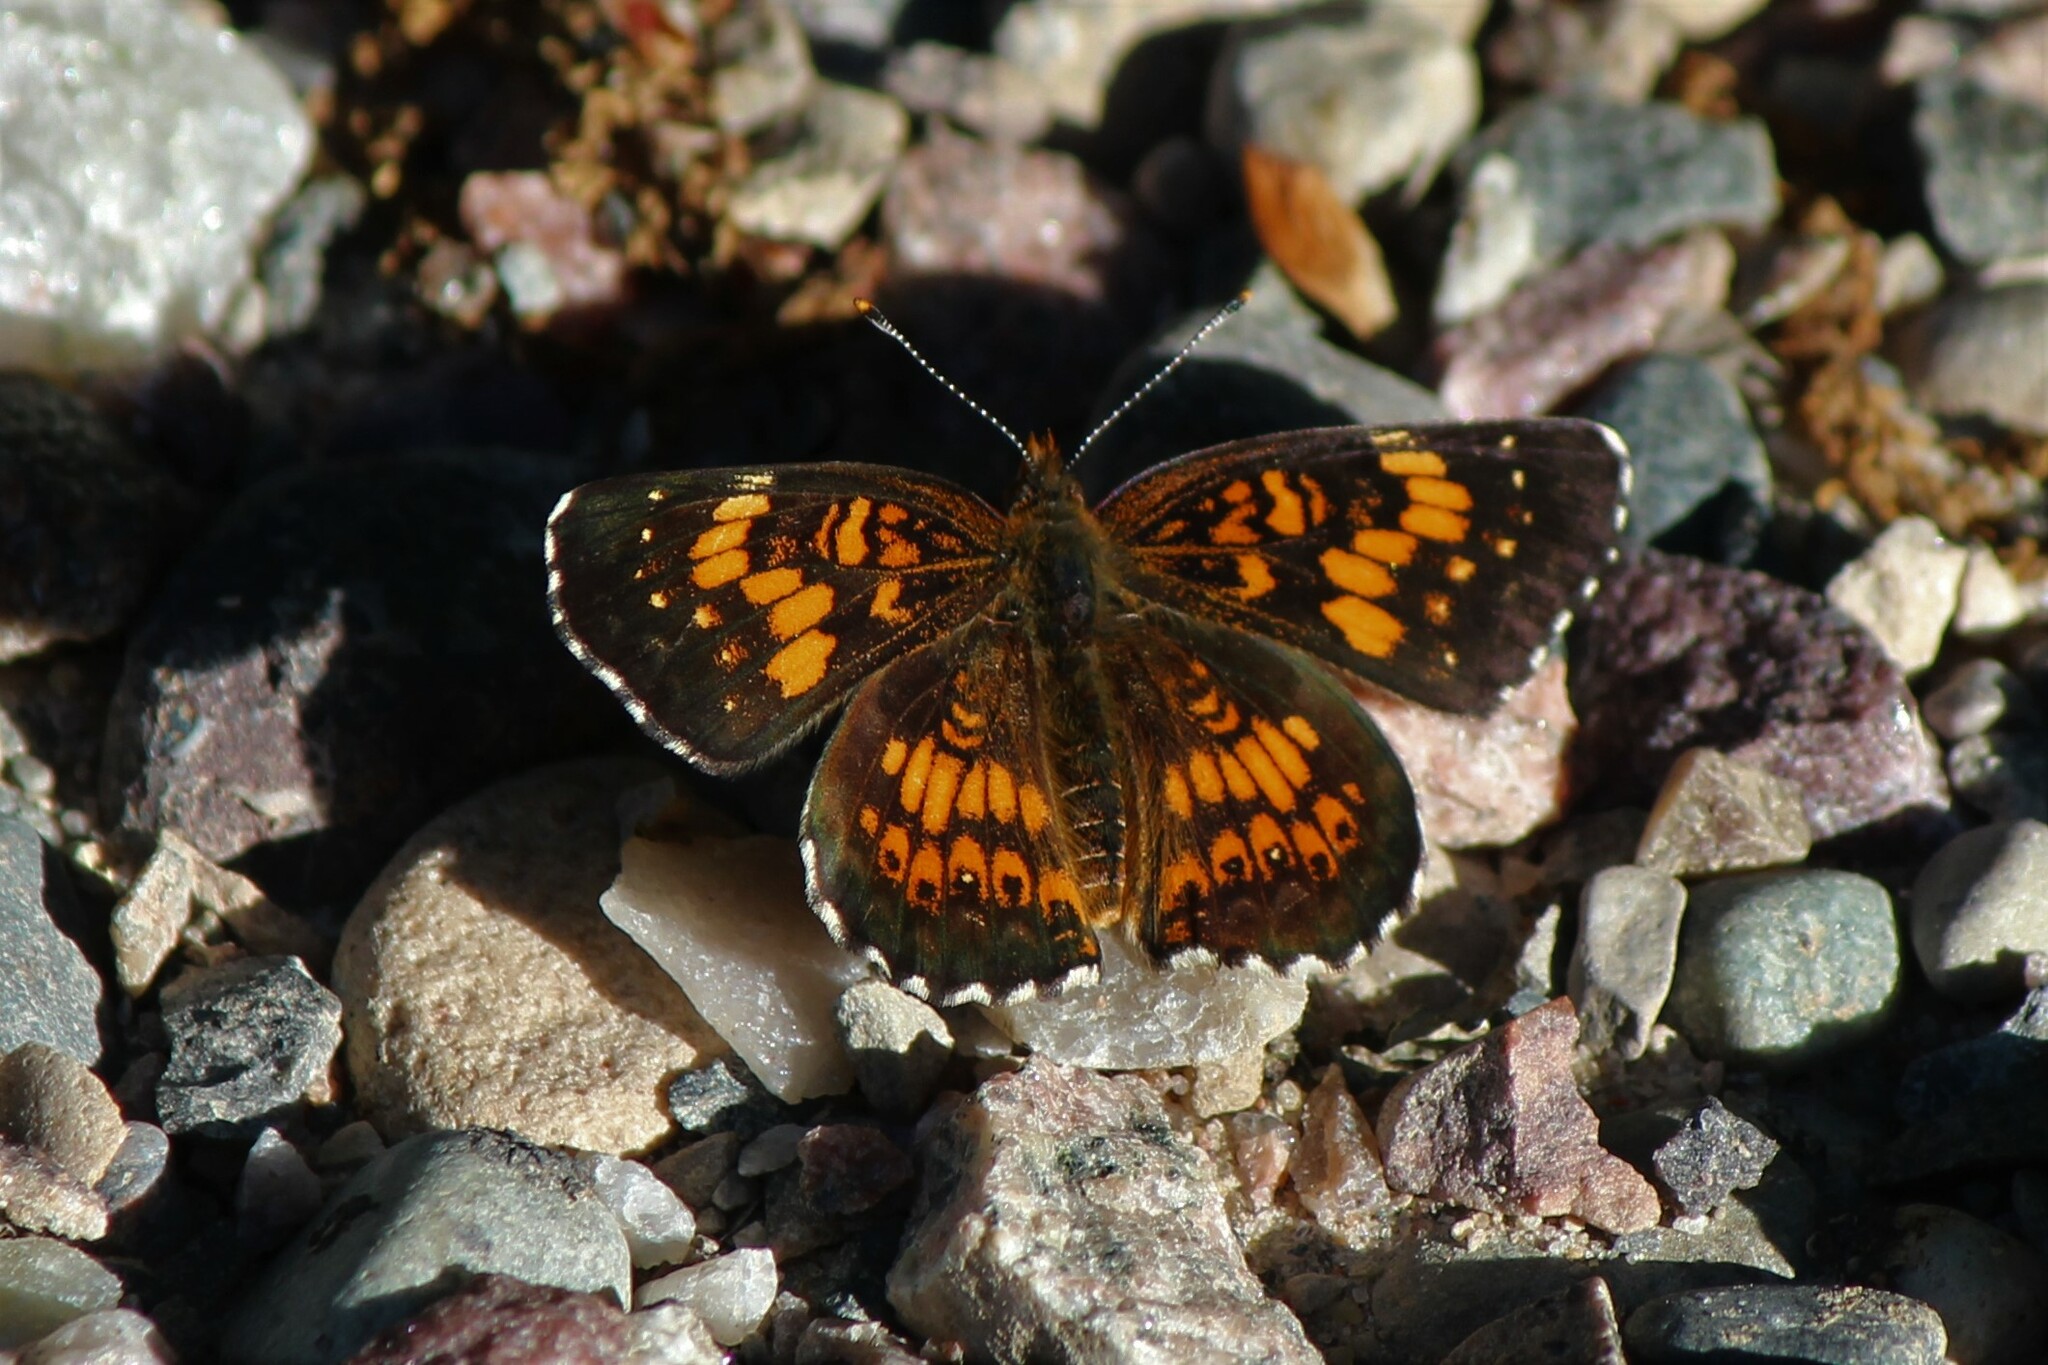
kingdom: Animalia
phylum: Arthropoda
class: Insecta
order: Lepidoptera
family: Nymphalidae
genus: Chlosyne
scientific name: Chlosyne harrisii
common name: Harris's checkerspot
